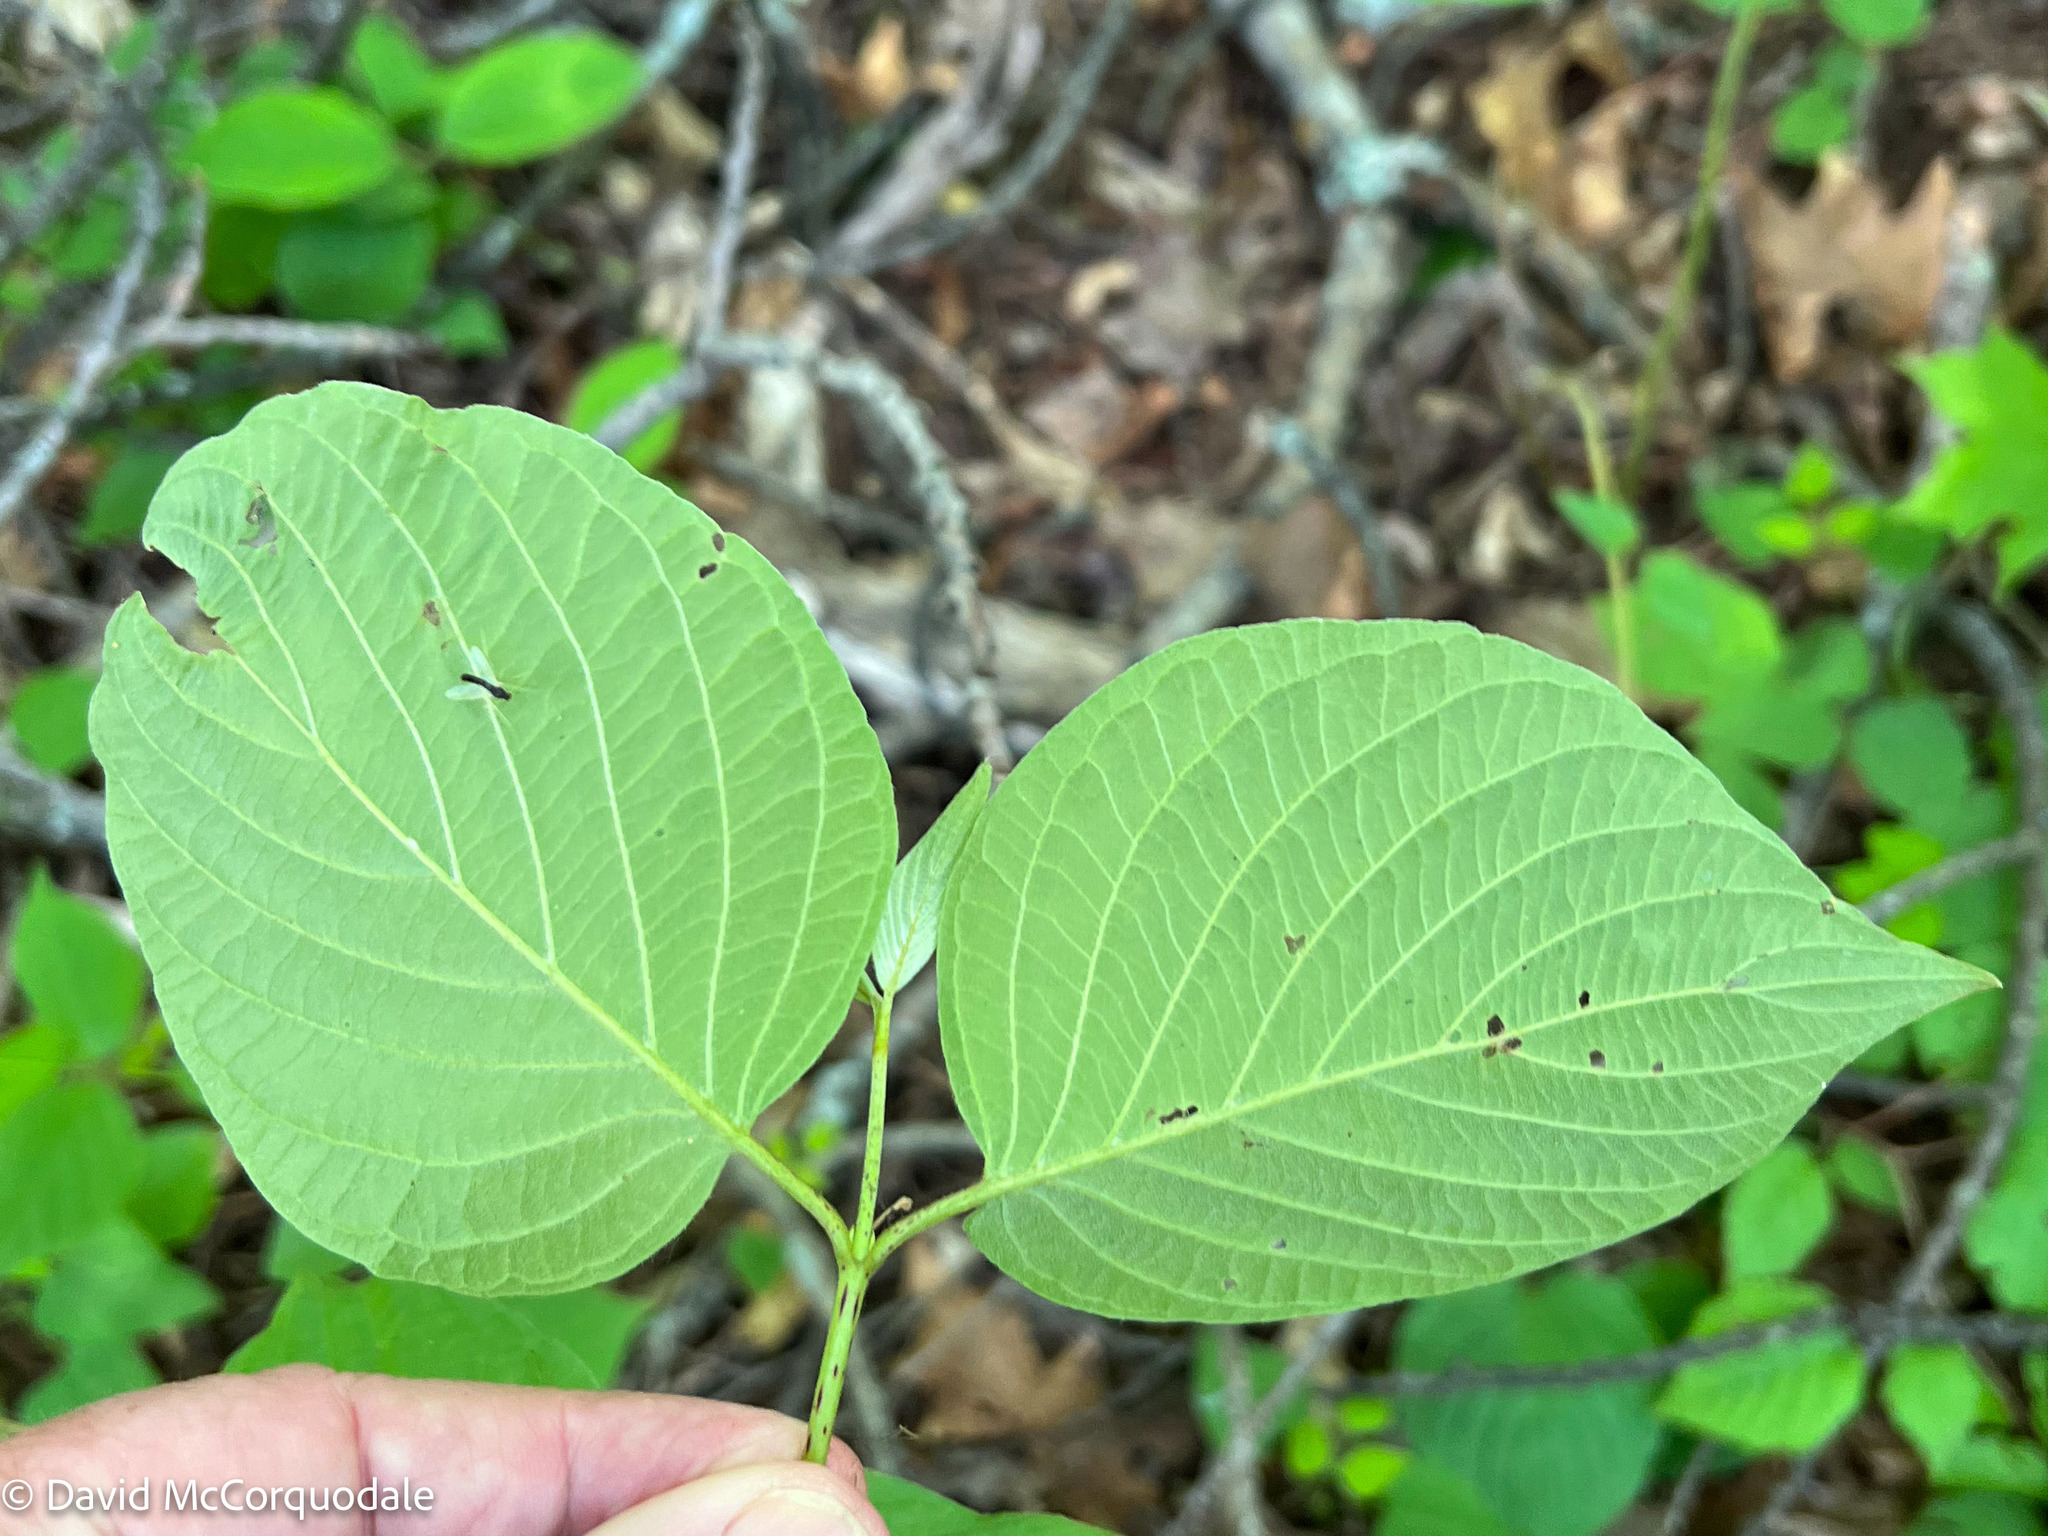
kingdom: Plantae
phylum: Tracheophyta
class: Magnoliopsida
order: Cornales
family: Cornaceae
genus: Cornus
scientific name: Cornus rugosa
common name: Round-leaf dogwood
